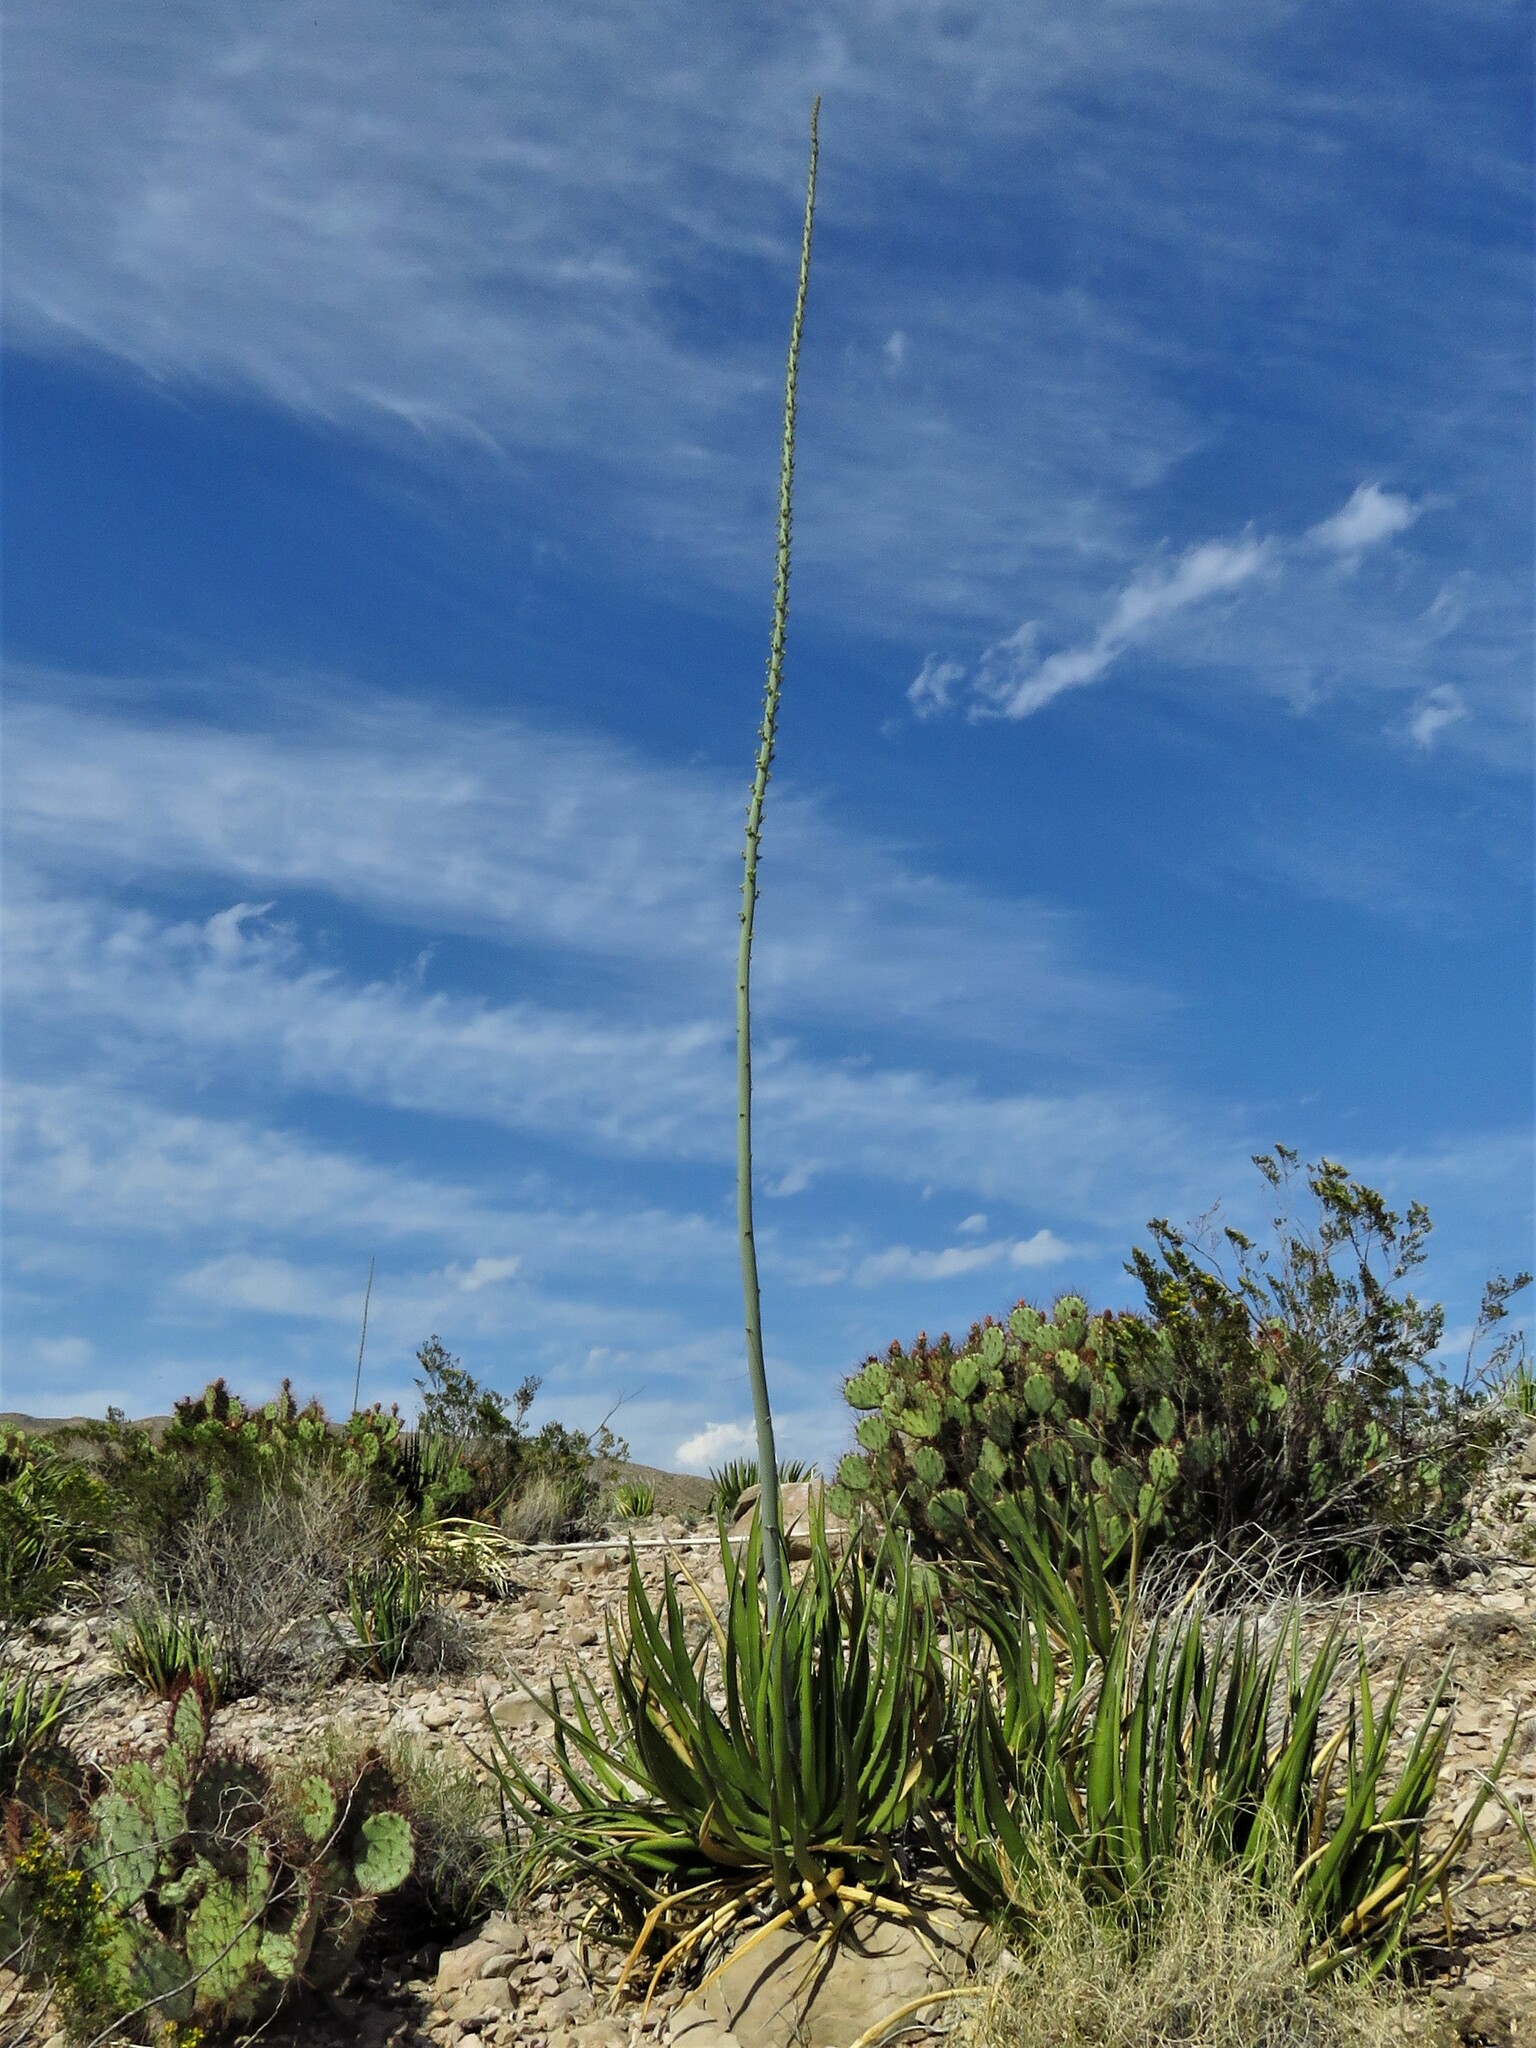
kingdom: Plantae
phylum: Tracheophyta
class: Liliopsida
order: Asparagales
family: Asparagaceae
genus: Agave
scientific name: Agave lechuguilla
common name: Lecheguilla agave
